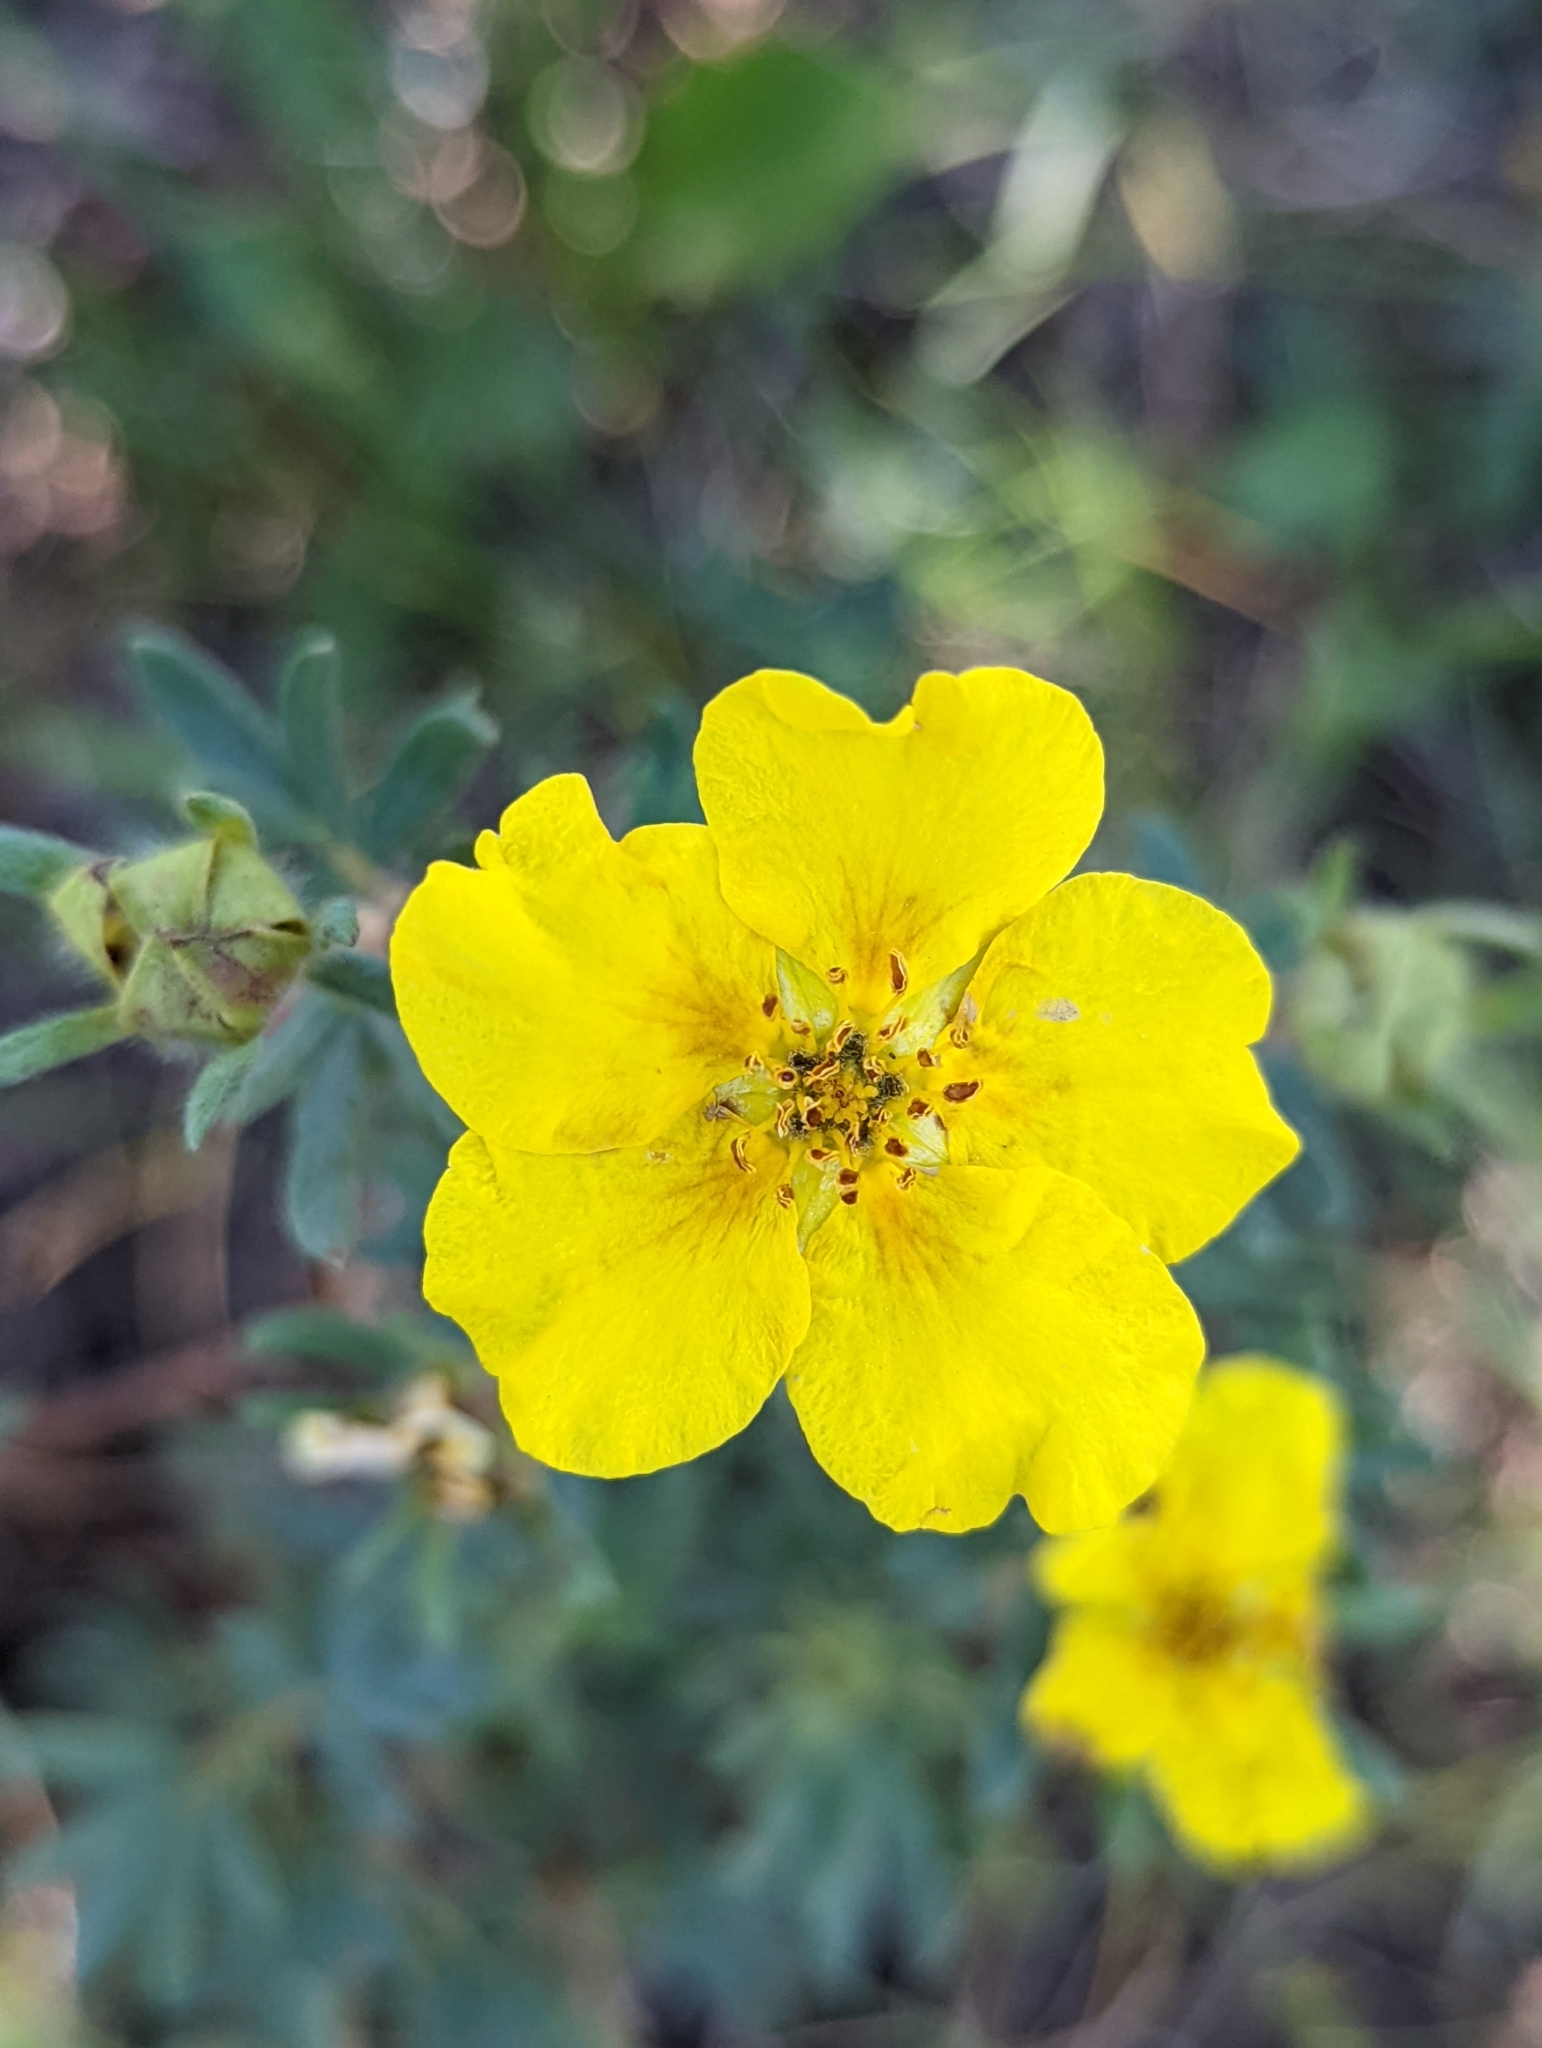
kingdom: Plantae
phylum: Tracheophyta
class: Magnoliopsida
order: Rosales
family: Rosaceae
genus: Dasiphora
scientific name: Dasiphora fruticosa
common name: Shrubby cinquefoil
